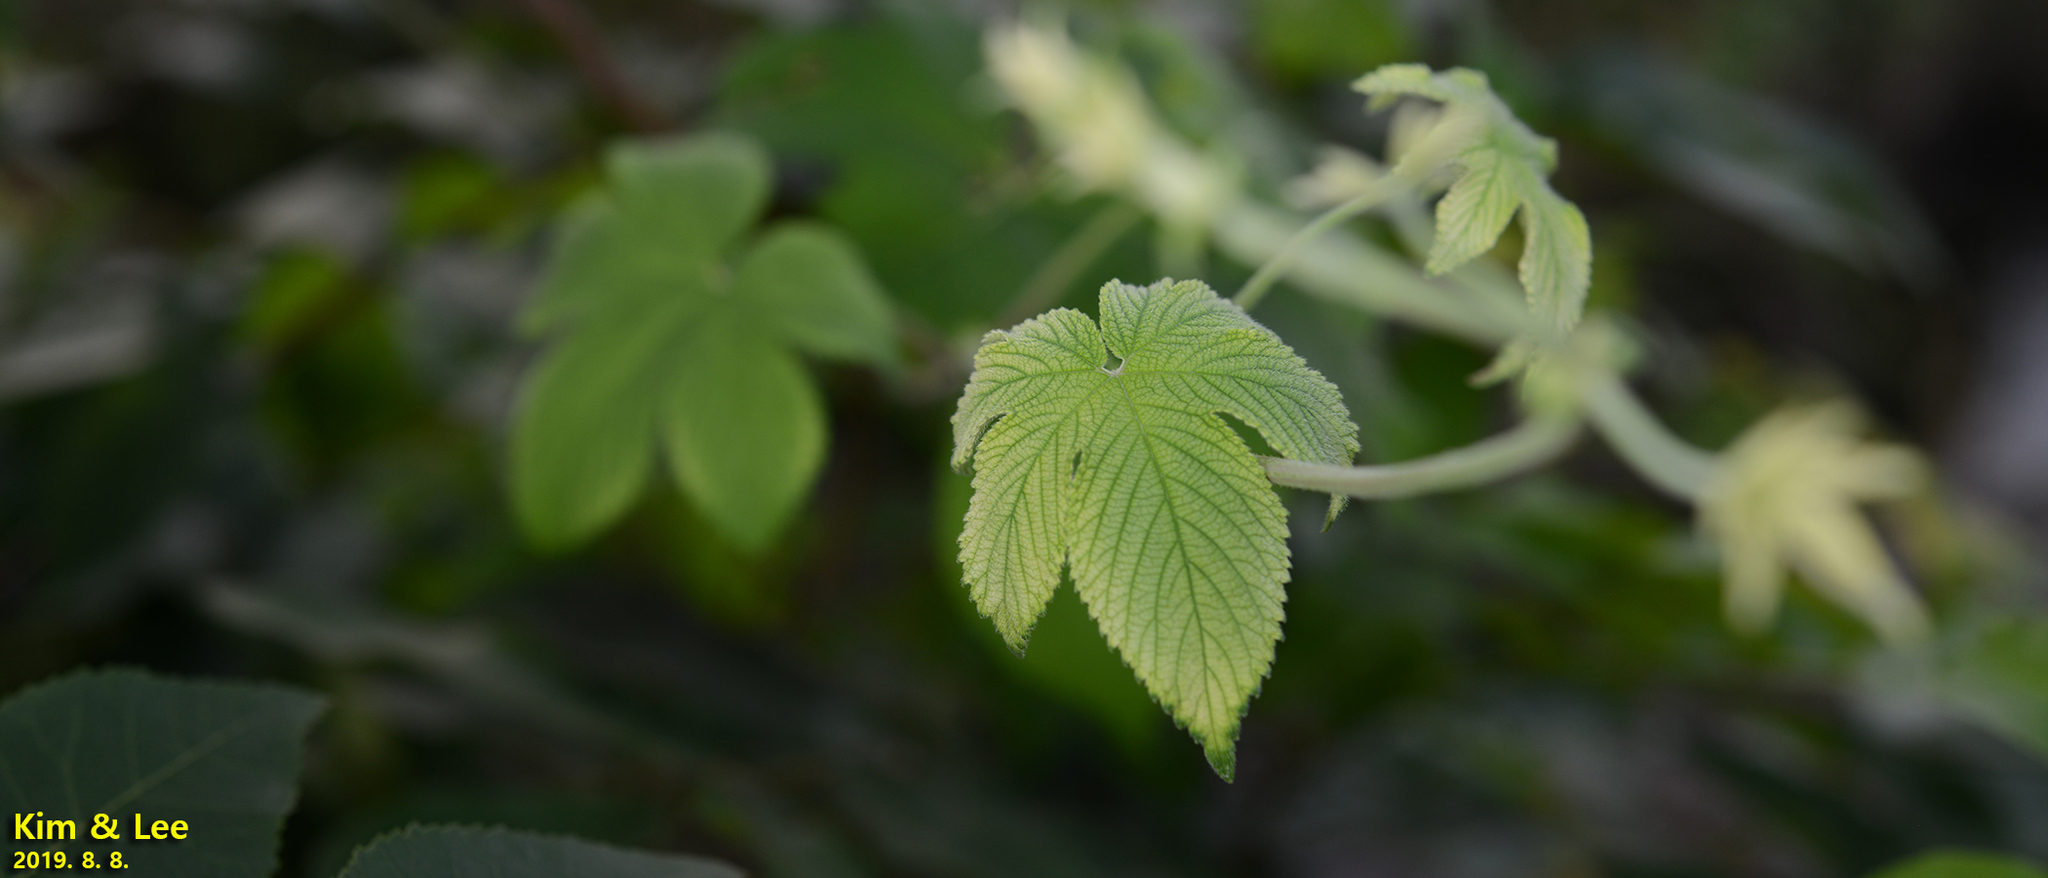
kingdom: Plantae
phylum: Tracheophyta
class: Magnoliopsida
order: Rosales
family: Cannabaceae
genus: Humulus
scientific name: Humulus scandens
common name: Japanese hop
